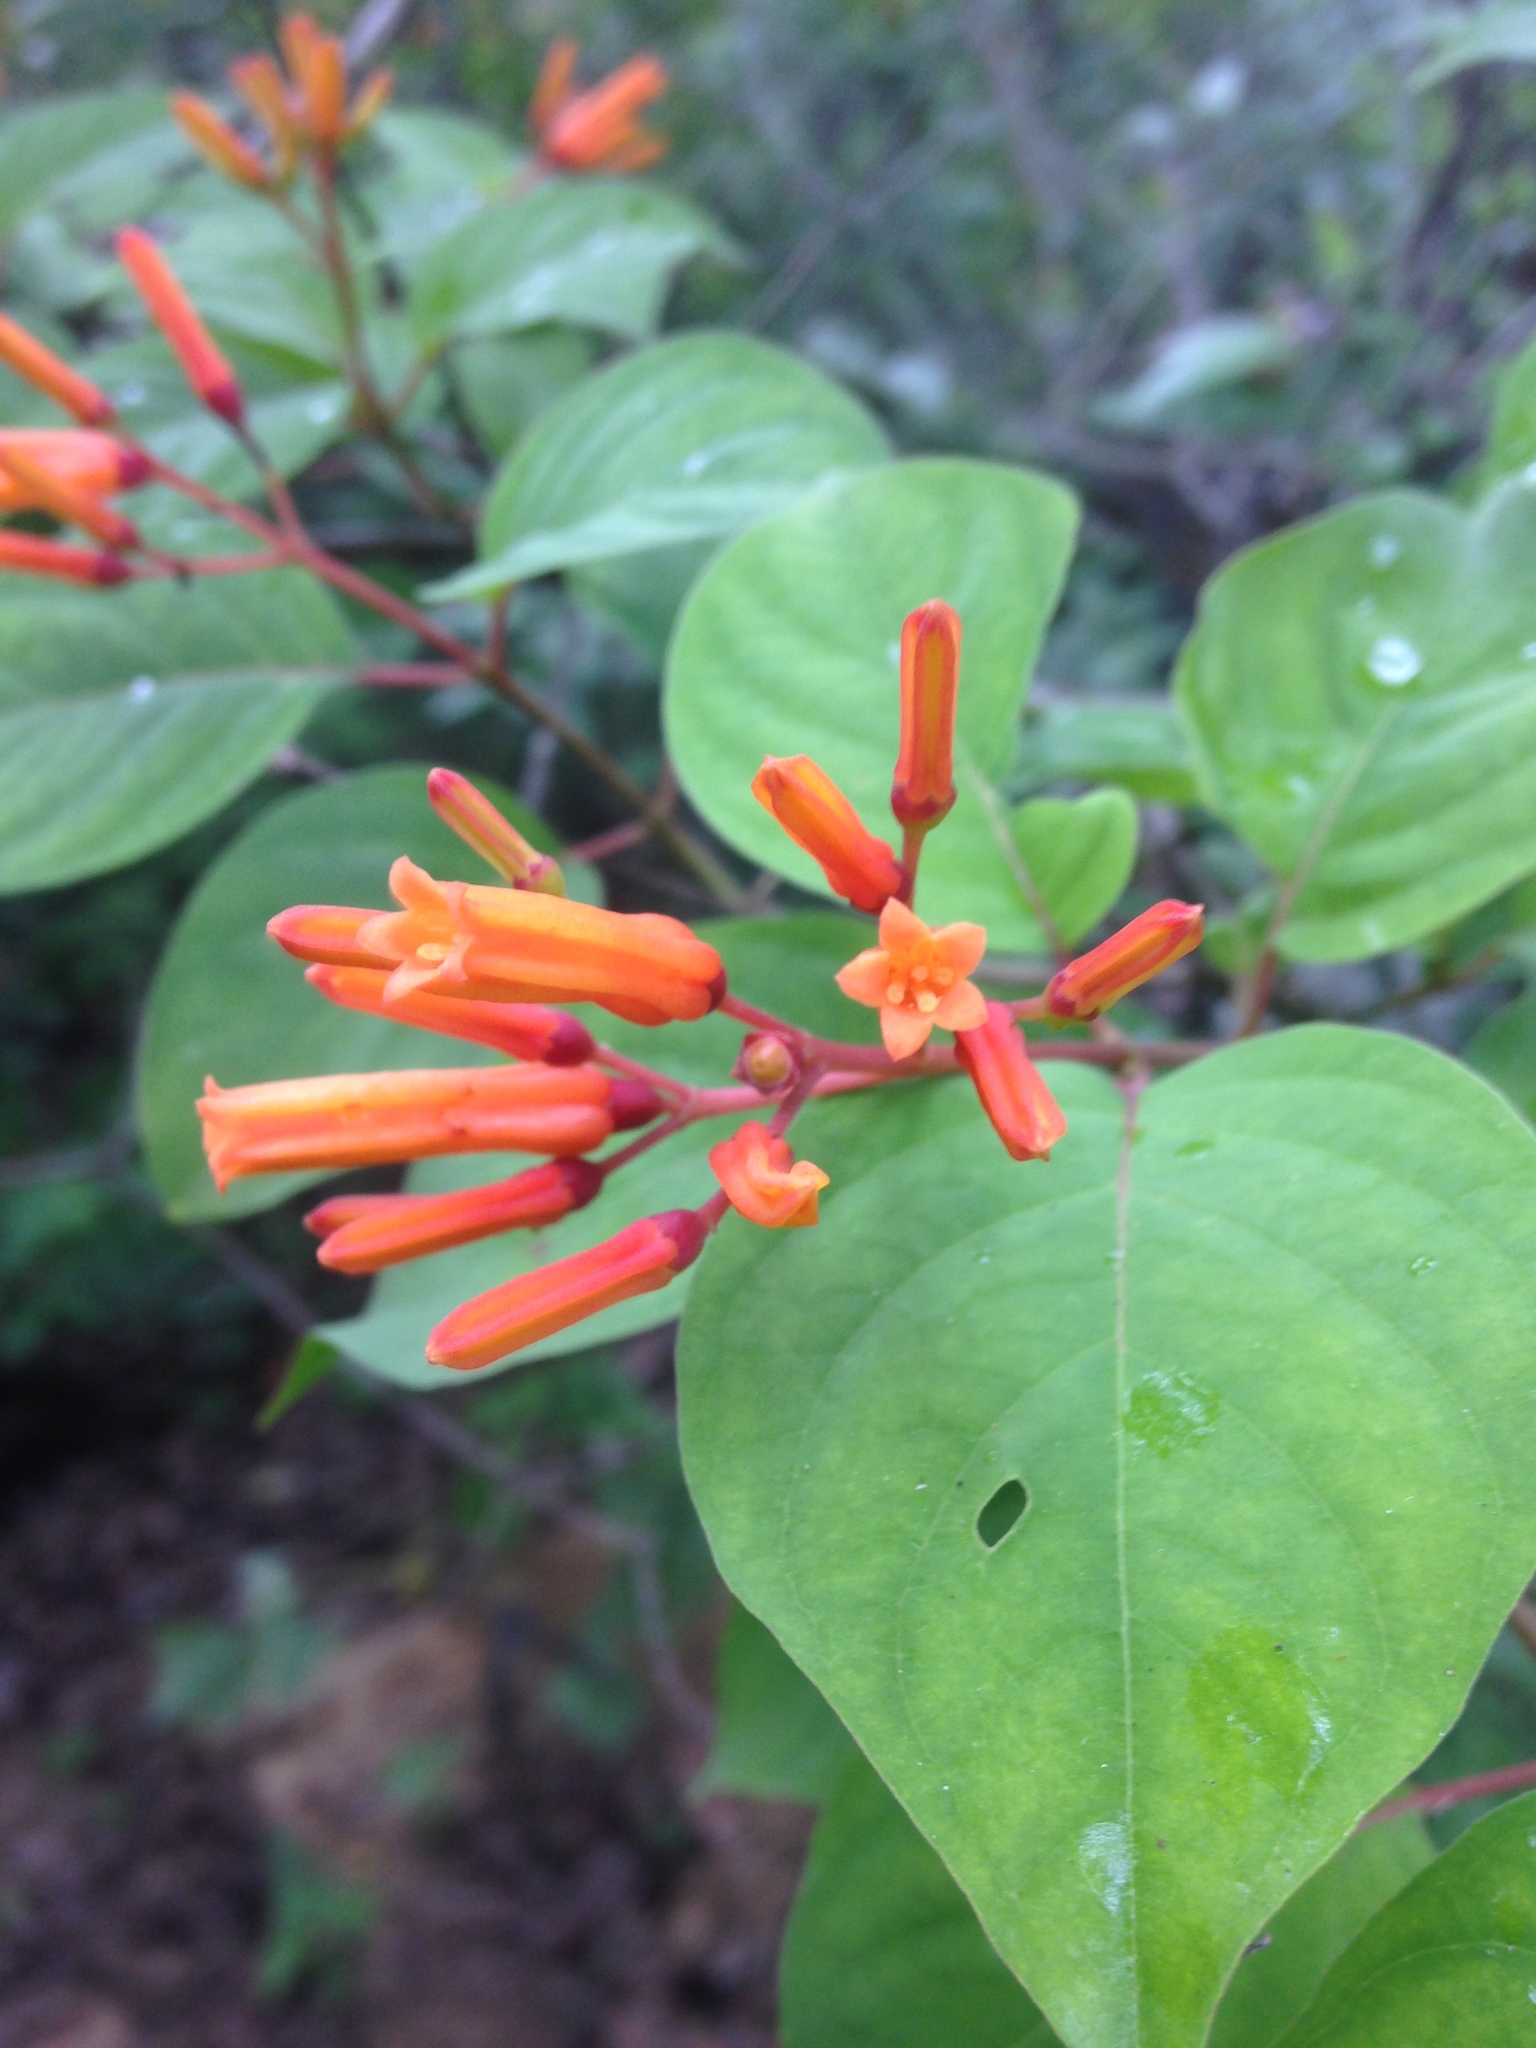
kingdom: Plantae
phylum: Tracheophyta
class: Magnoliopsida
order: Gentianales
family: Rubiaceae
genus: Hamelia
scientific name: Hamelia patens
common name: Redhead
